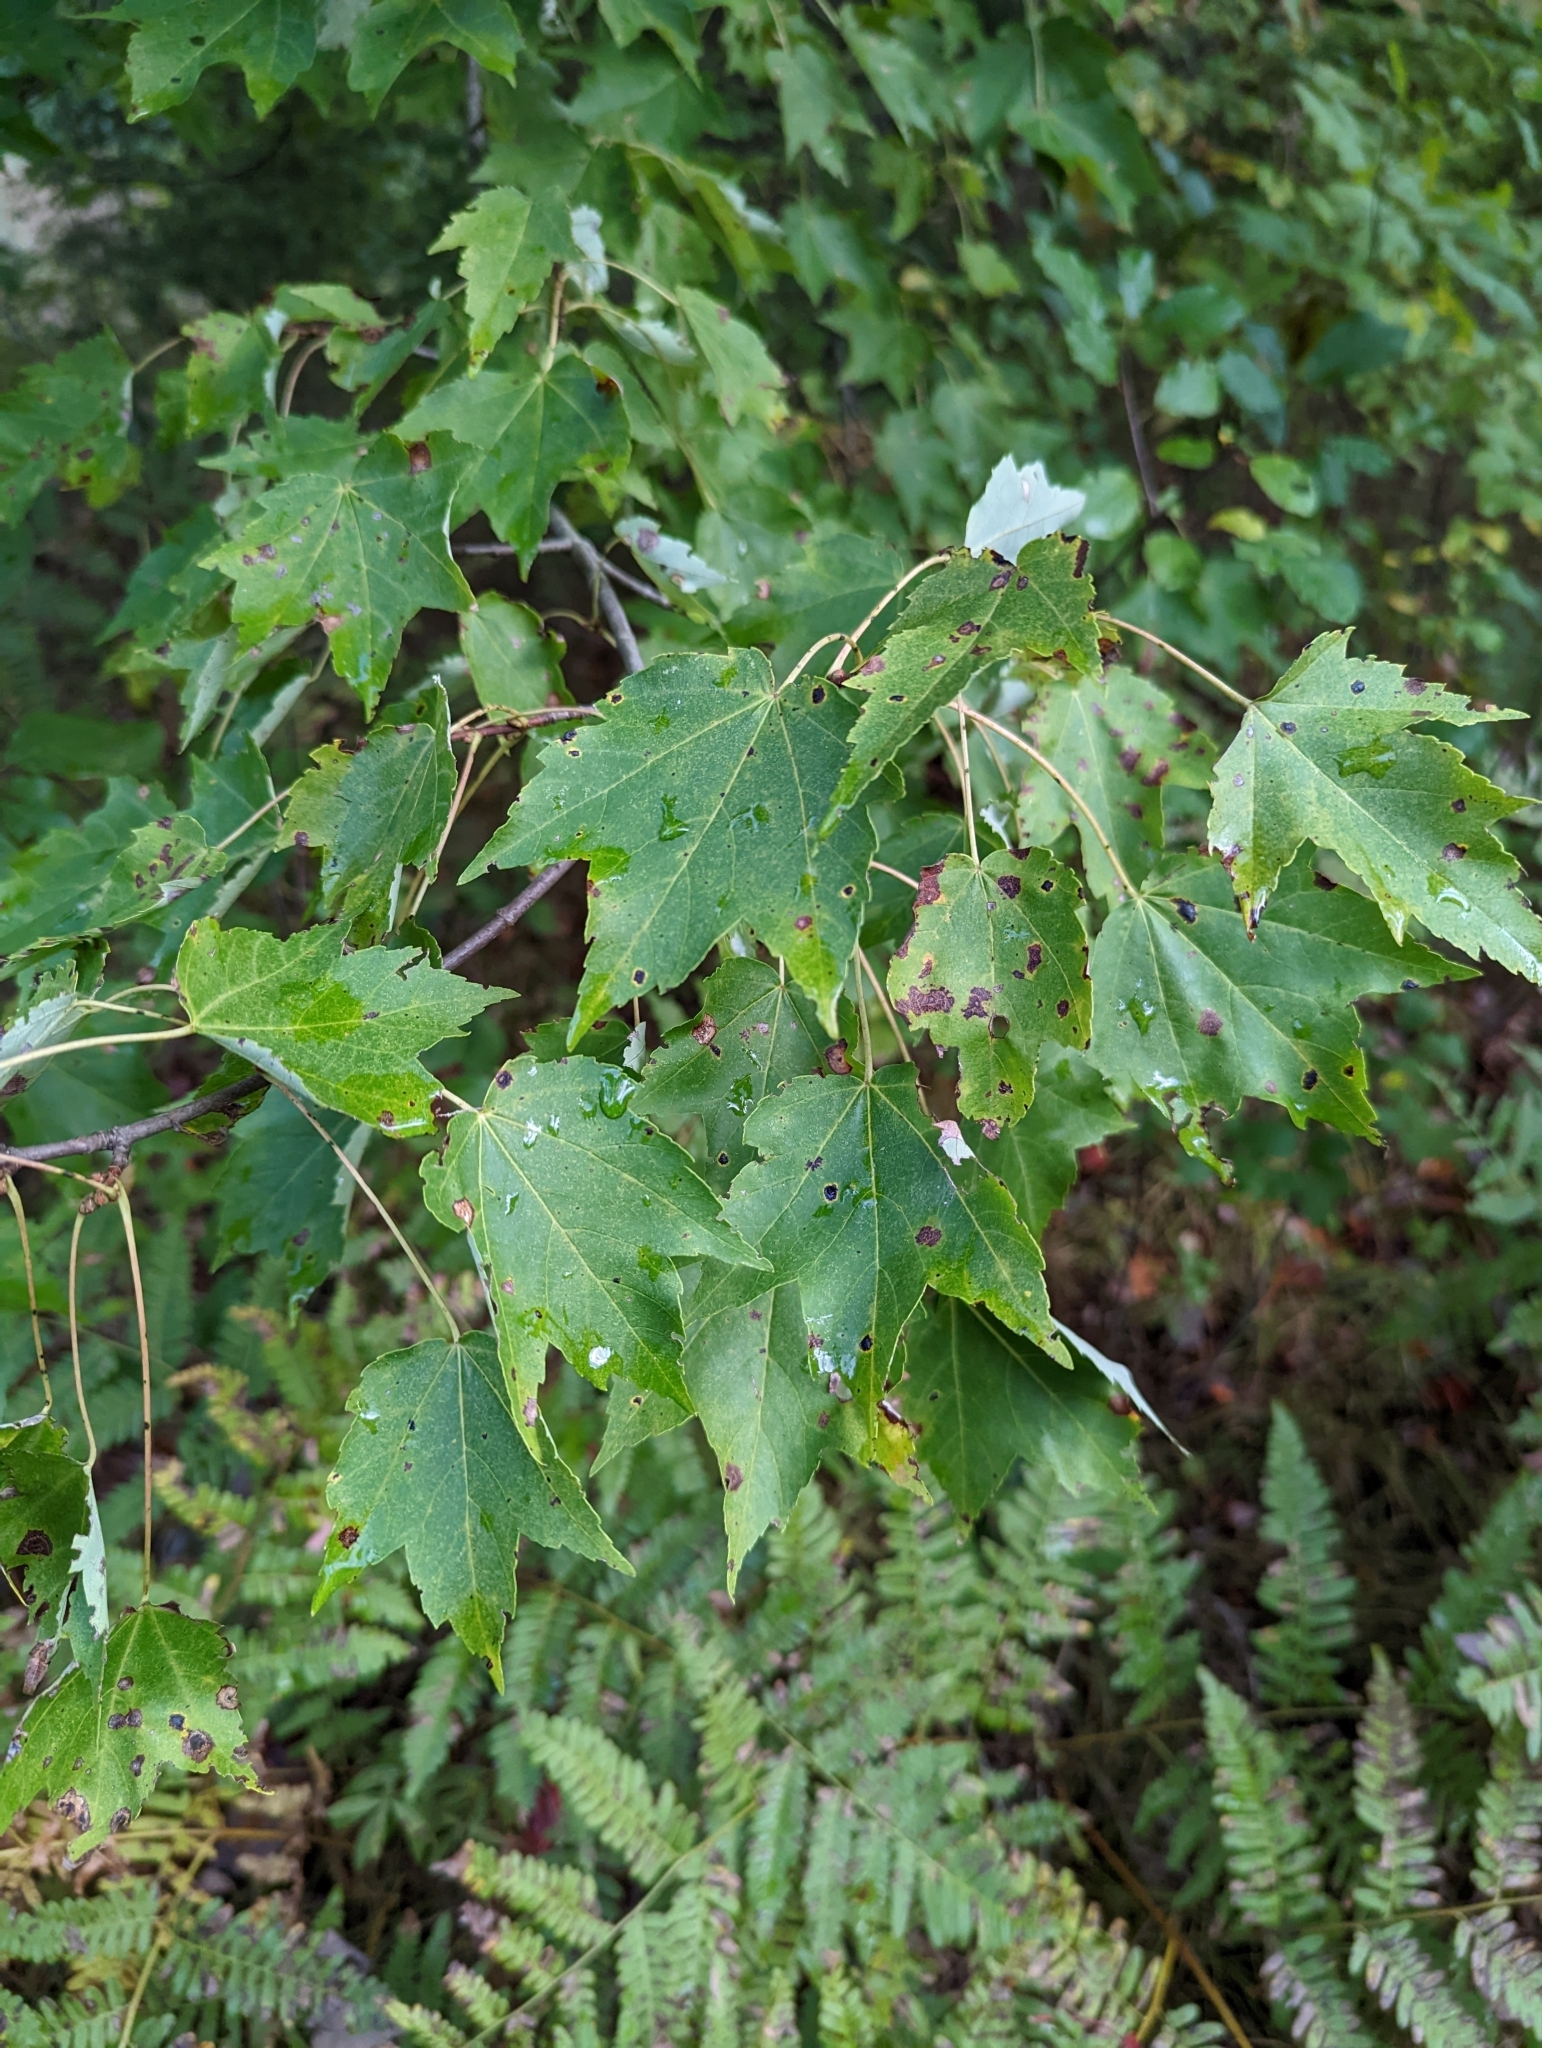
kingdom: Plantae
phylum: Tracheophyta
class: Magnoliopsida
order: Sapindales
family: Sapindaceae
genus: Acer
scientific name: Acer rubrum
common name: Red maple
